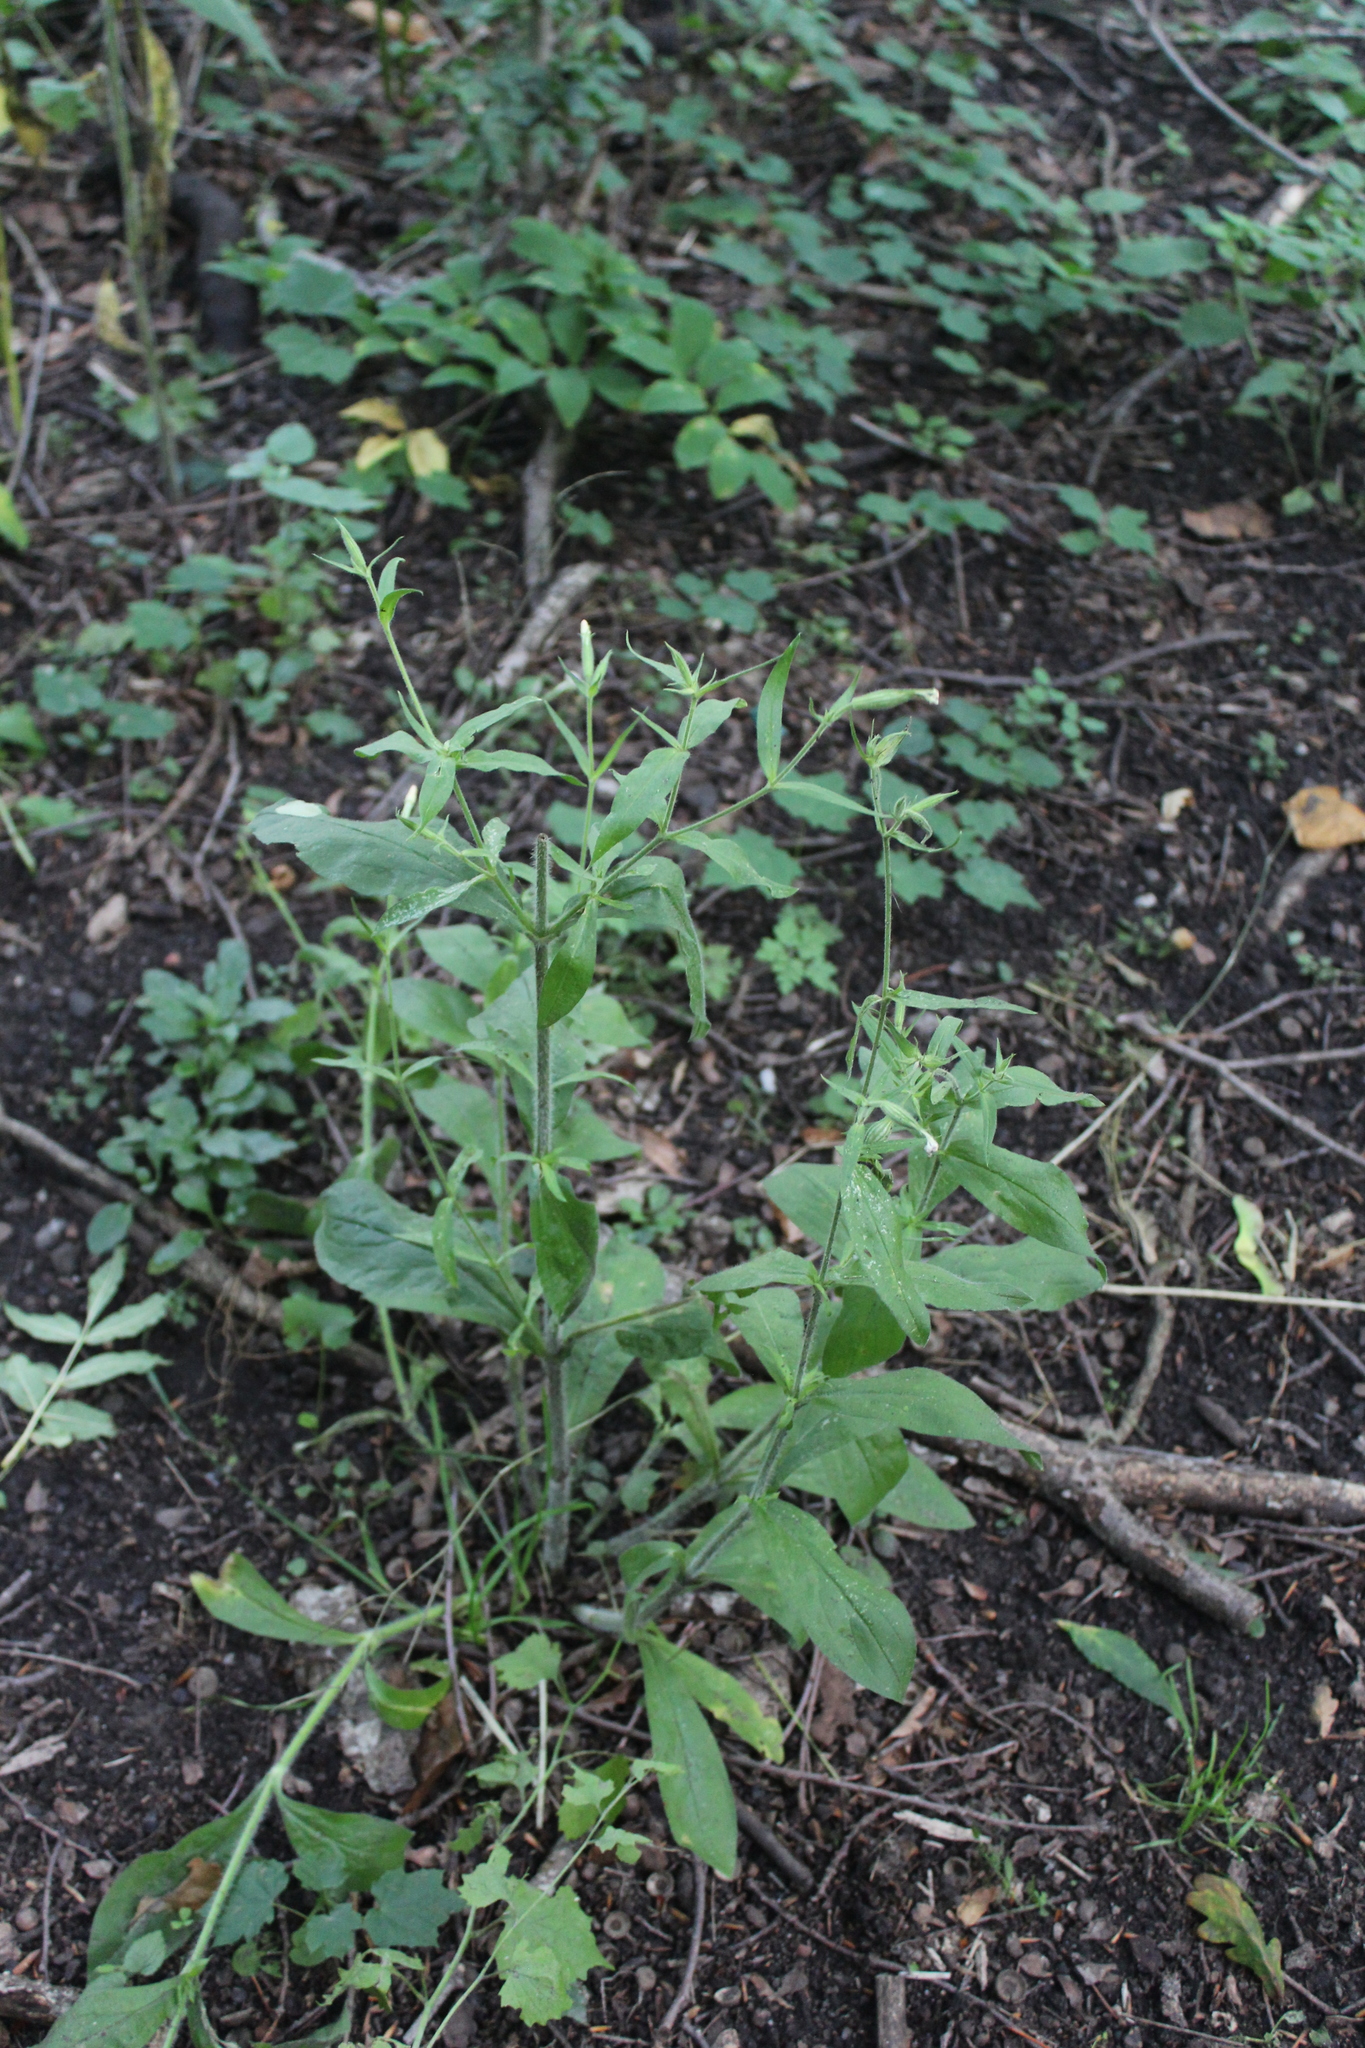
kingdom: Plantae
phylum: Tracheophyta
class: Magnoliopsida
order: Caryophyllales
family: Caryophyllaceae
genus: Silene
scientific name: Silene noctiflora
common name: Night-flowering catchfly
